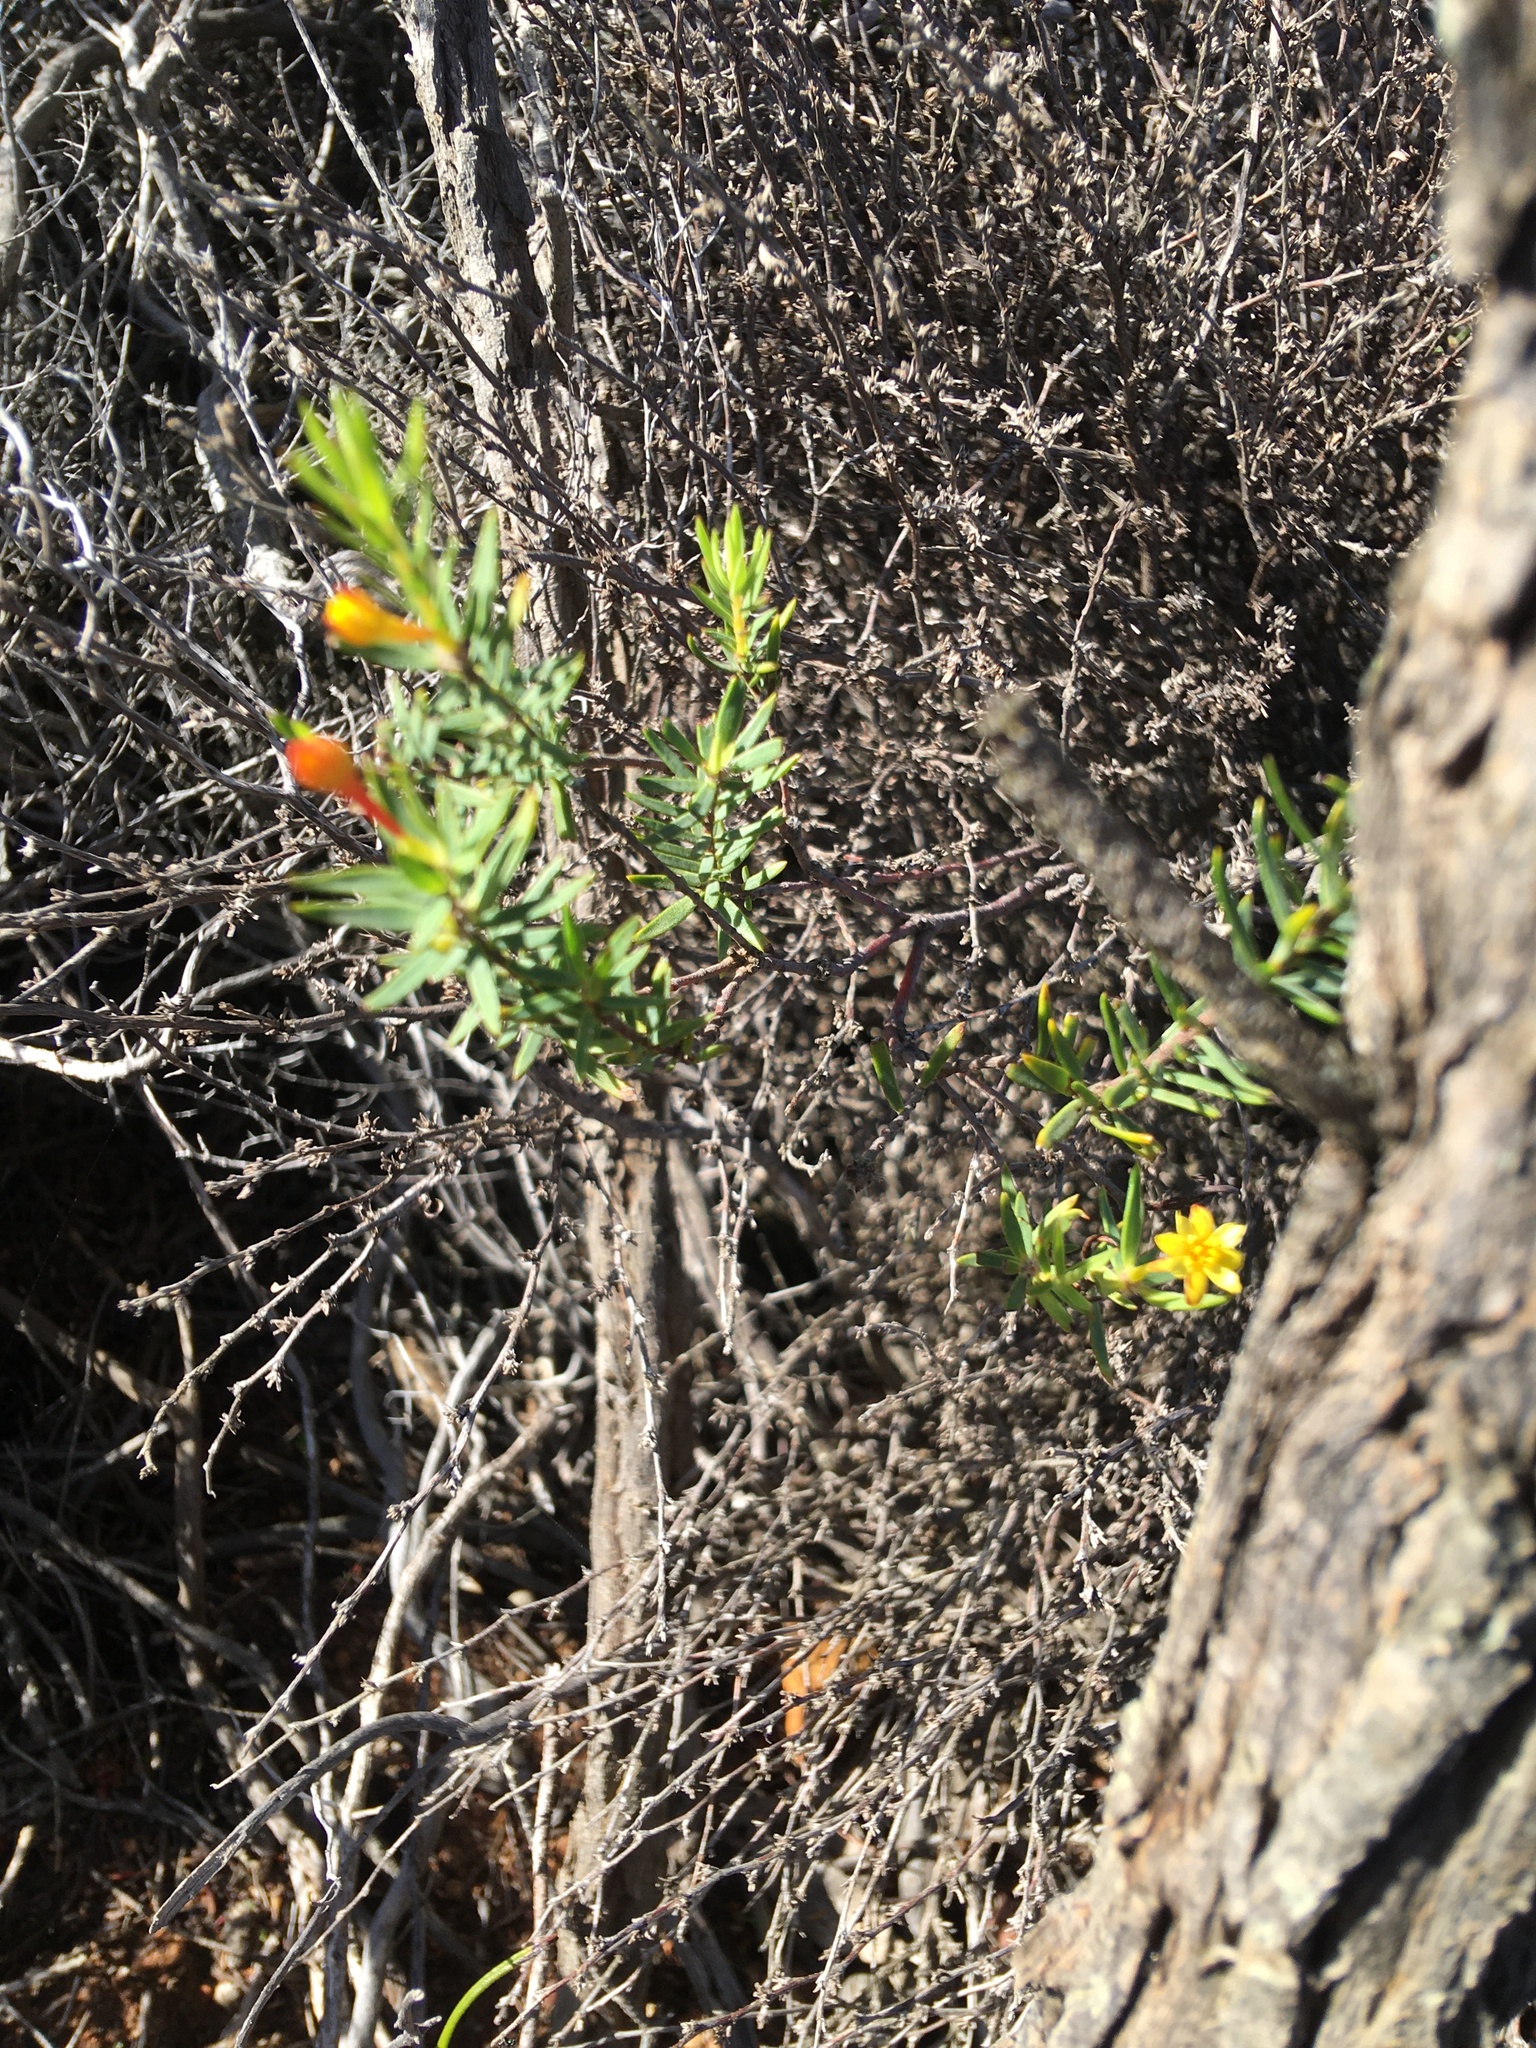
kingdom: Plantae
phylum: Tracheophyta
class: Magnoliopsida
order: Malvales
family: Thymelaeaceae
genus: Gnidia
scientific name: Gnidia juniperifolia
